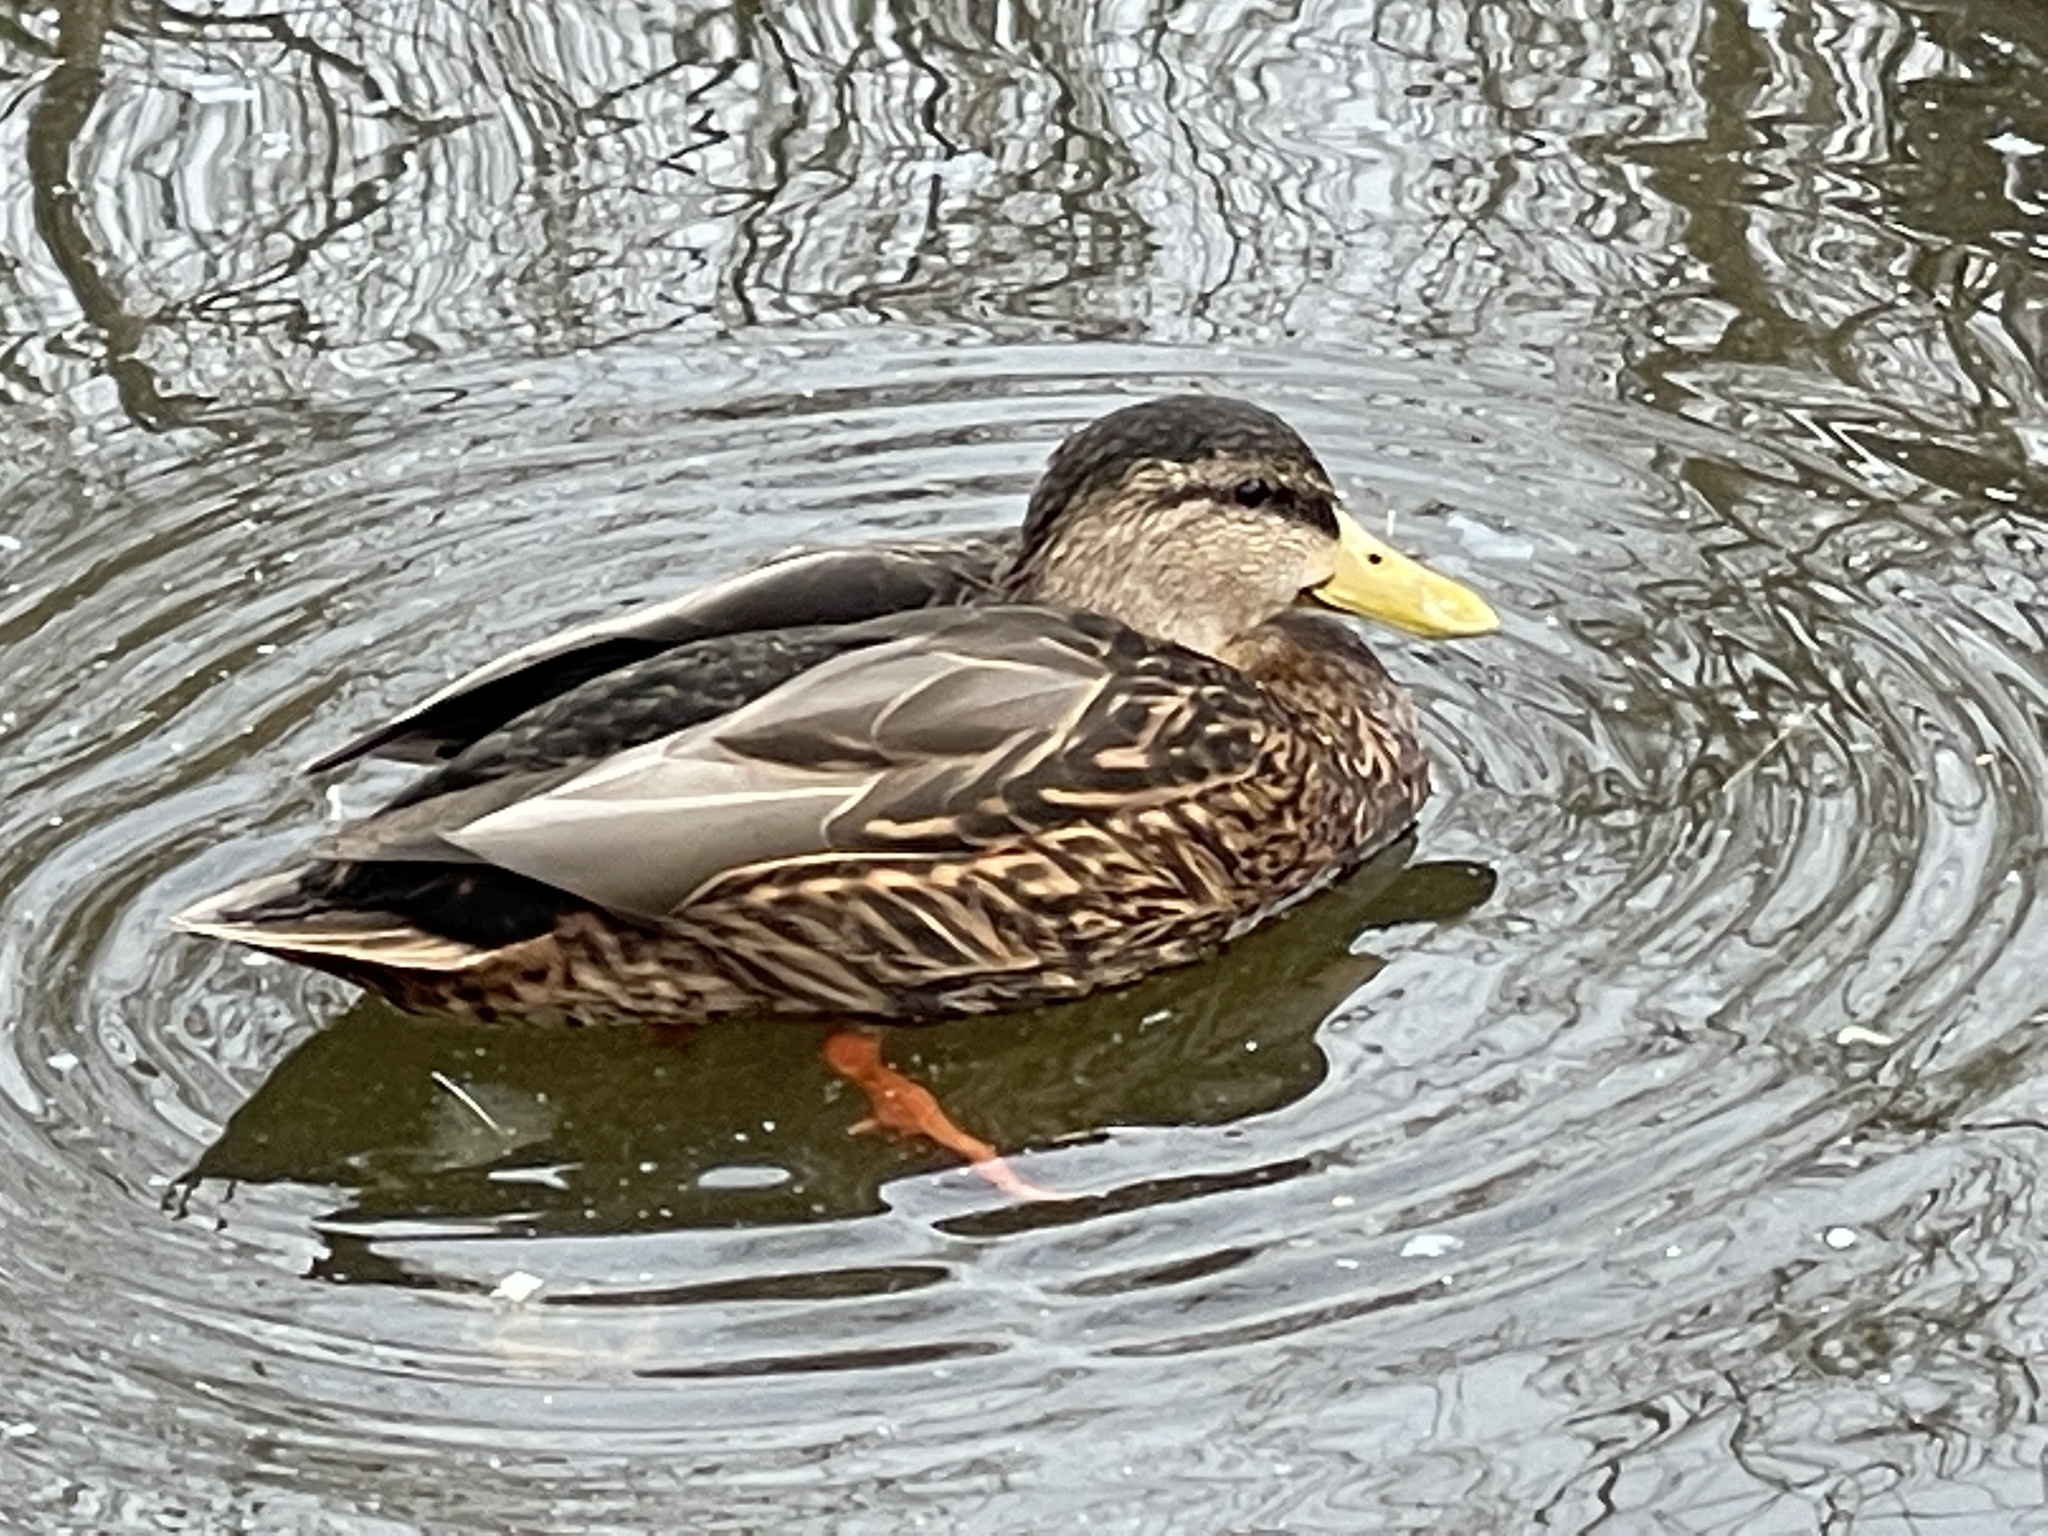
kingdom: Animalia
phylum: Chordata
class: Aves
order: Anseriformes
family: Anatidae
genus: Anas
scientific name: Anas
